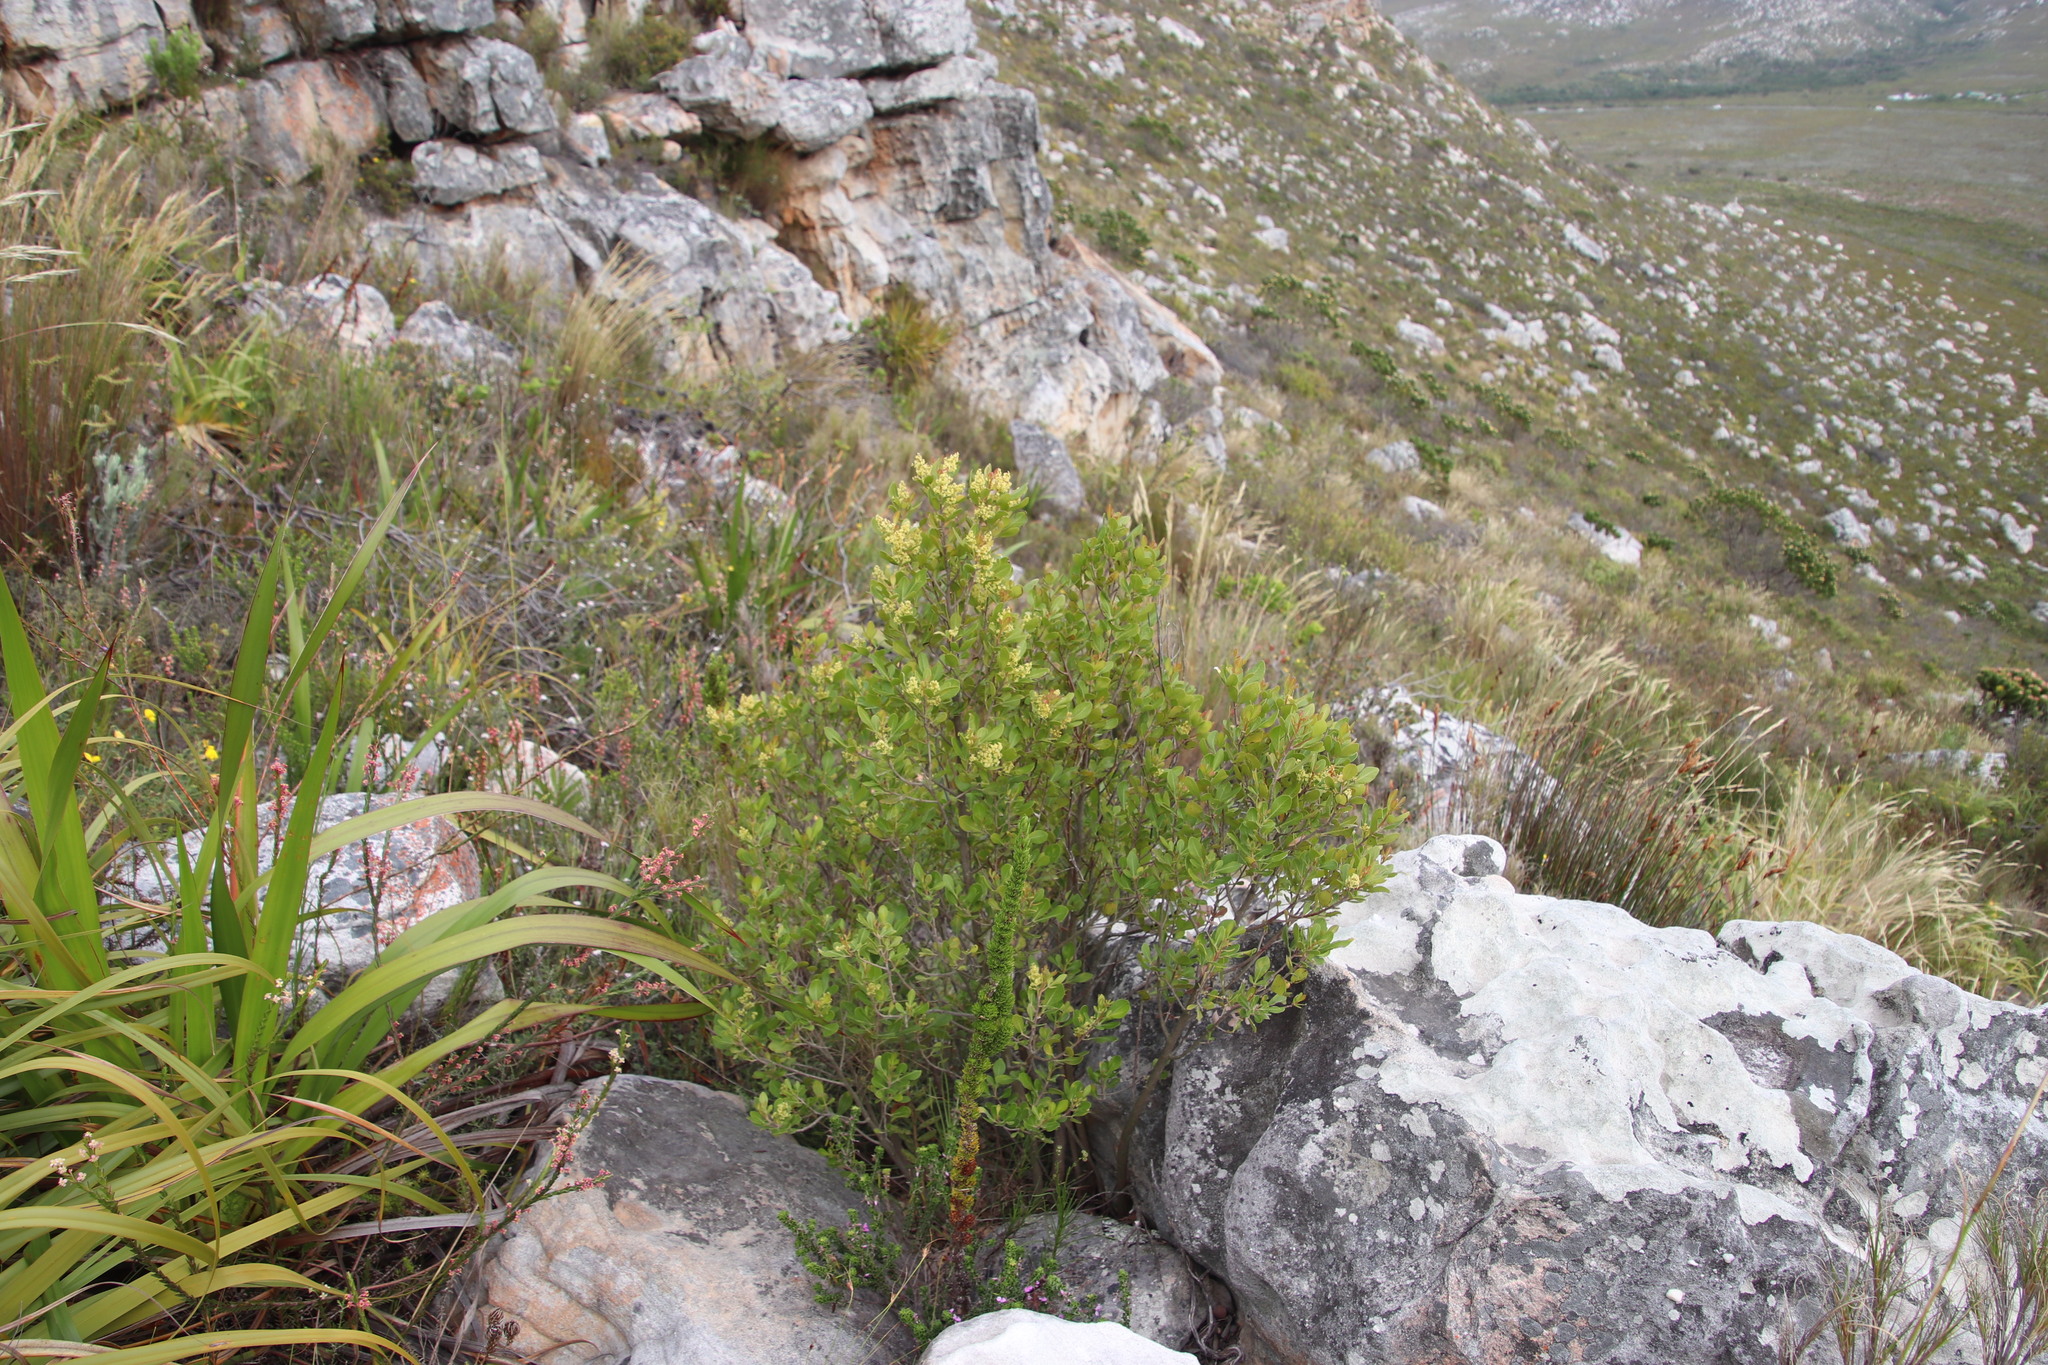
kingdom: Plantae
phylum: Tracheophyta
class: Magnoliopsida
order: Sapindales
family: Anacardiaceae
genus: Searsia
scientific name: Searsia lucida
